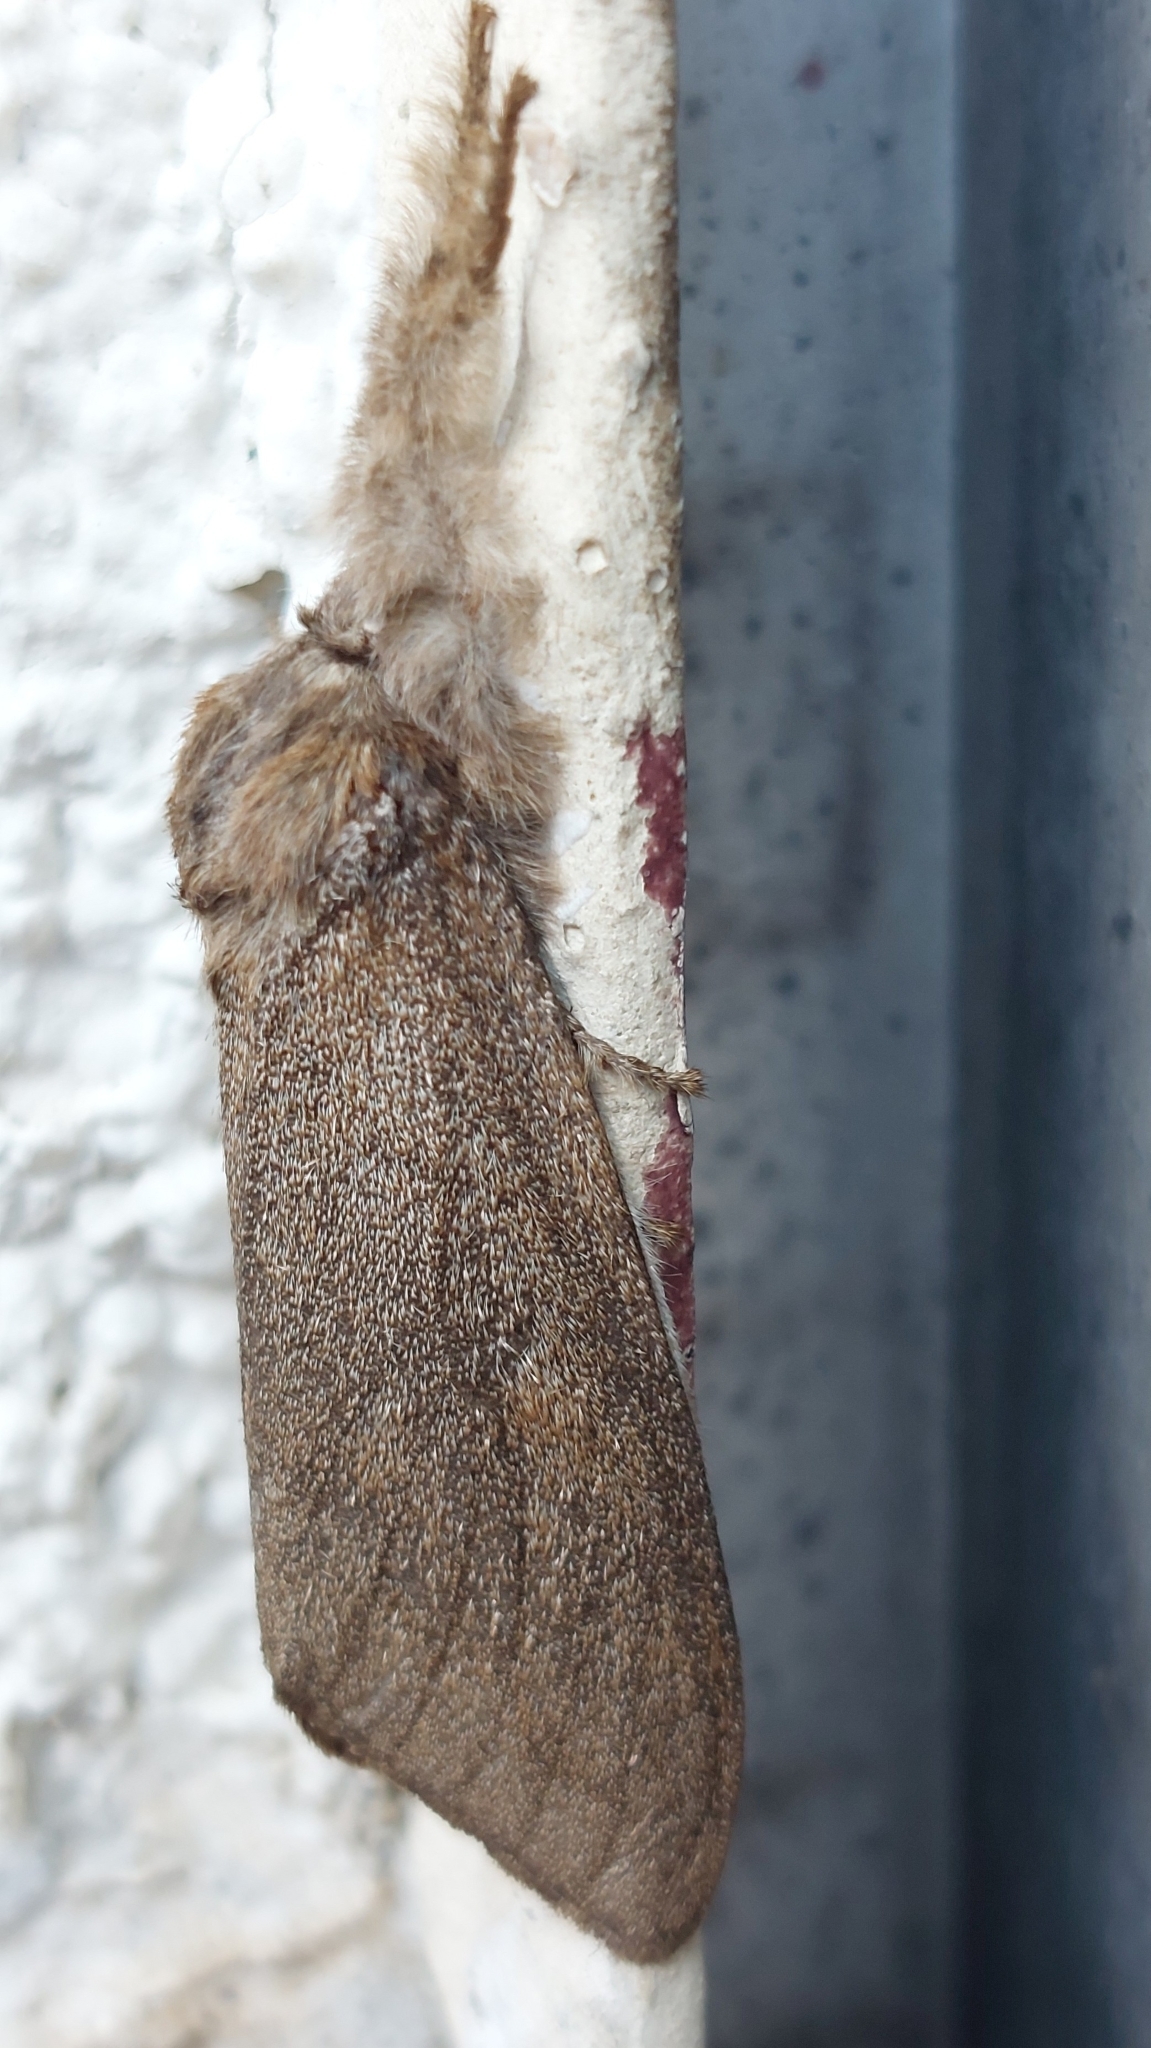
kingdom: Animalia
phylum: Arthropoda
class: Insecta
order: Lepidoptera
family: Erebidae
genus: Calliteara
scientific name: Calliteara pudibunda
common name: Pale tussock
